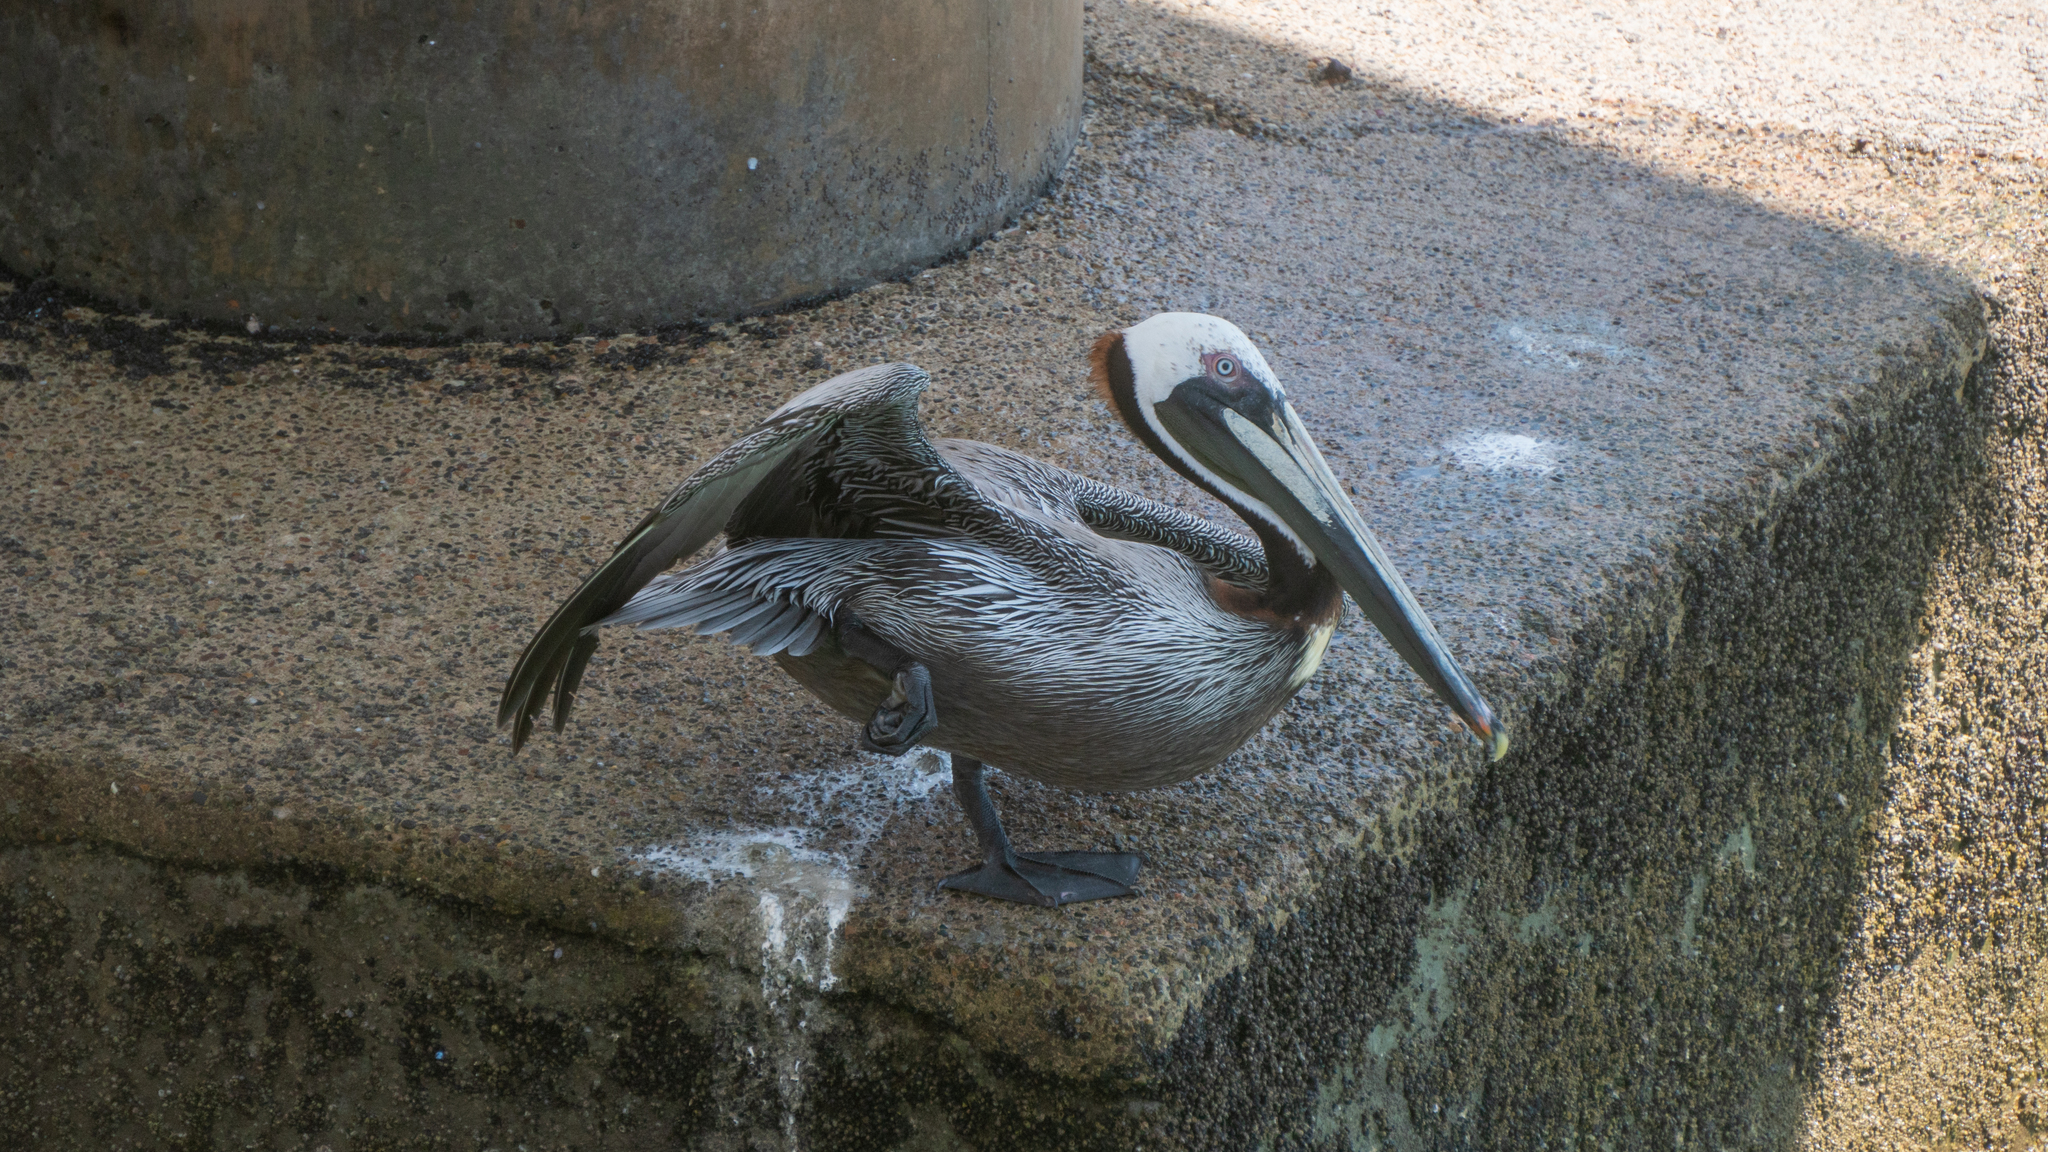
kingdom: Animalia
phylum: Chordata
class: Aves
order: Pelecaniformes
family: Pelecanidae
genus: Pelecanus
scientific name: Pelecanus occidentalis
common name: Brown pelican
